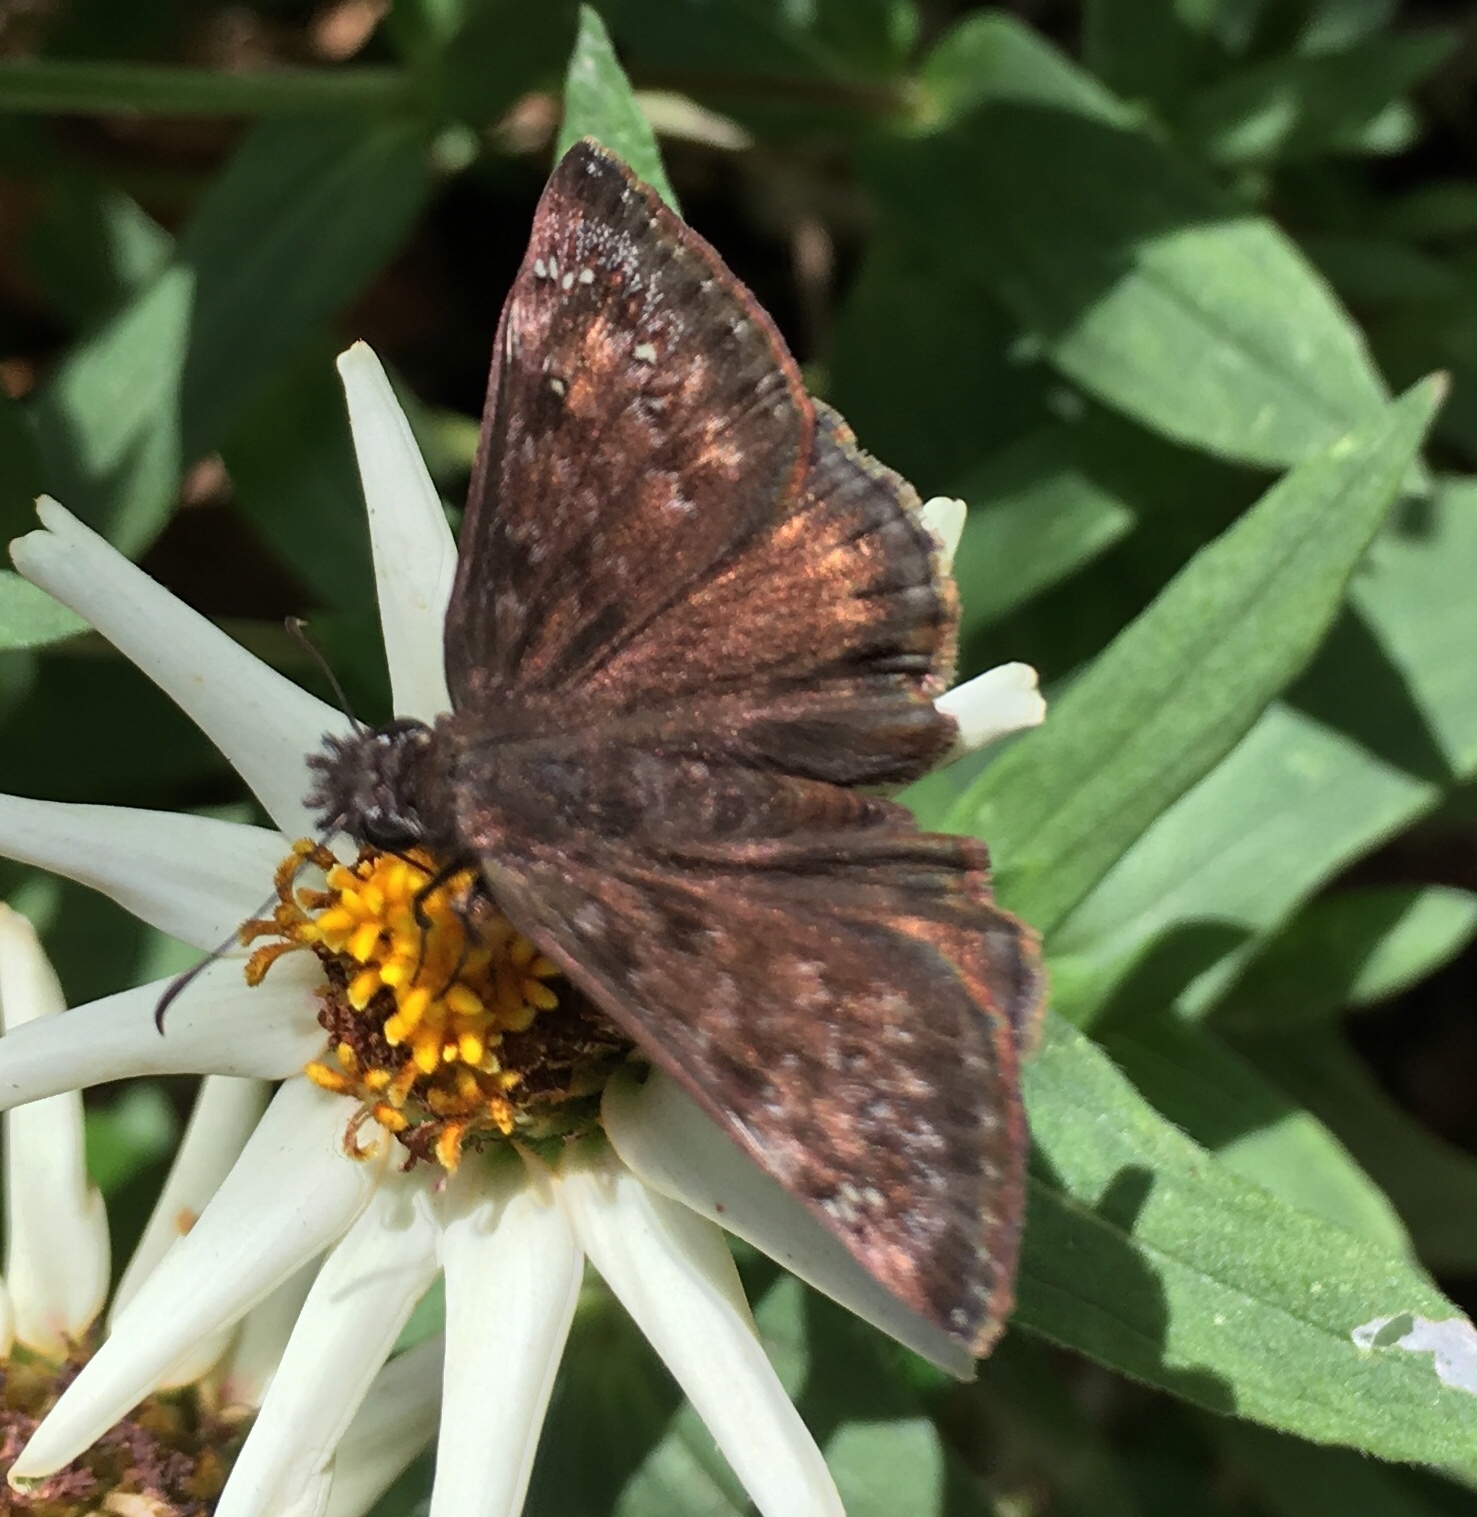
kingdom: Animalia
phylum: Arthropoda
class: Insecta
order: Lepidoptera
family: Hesperiidae
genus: Erynnis
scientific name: Erynnis horatius
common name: Horace's duskywing
